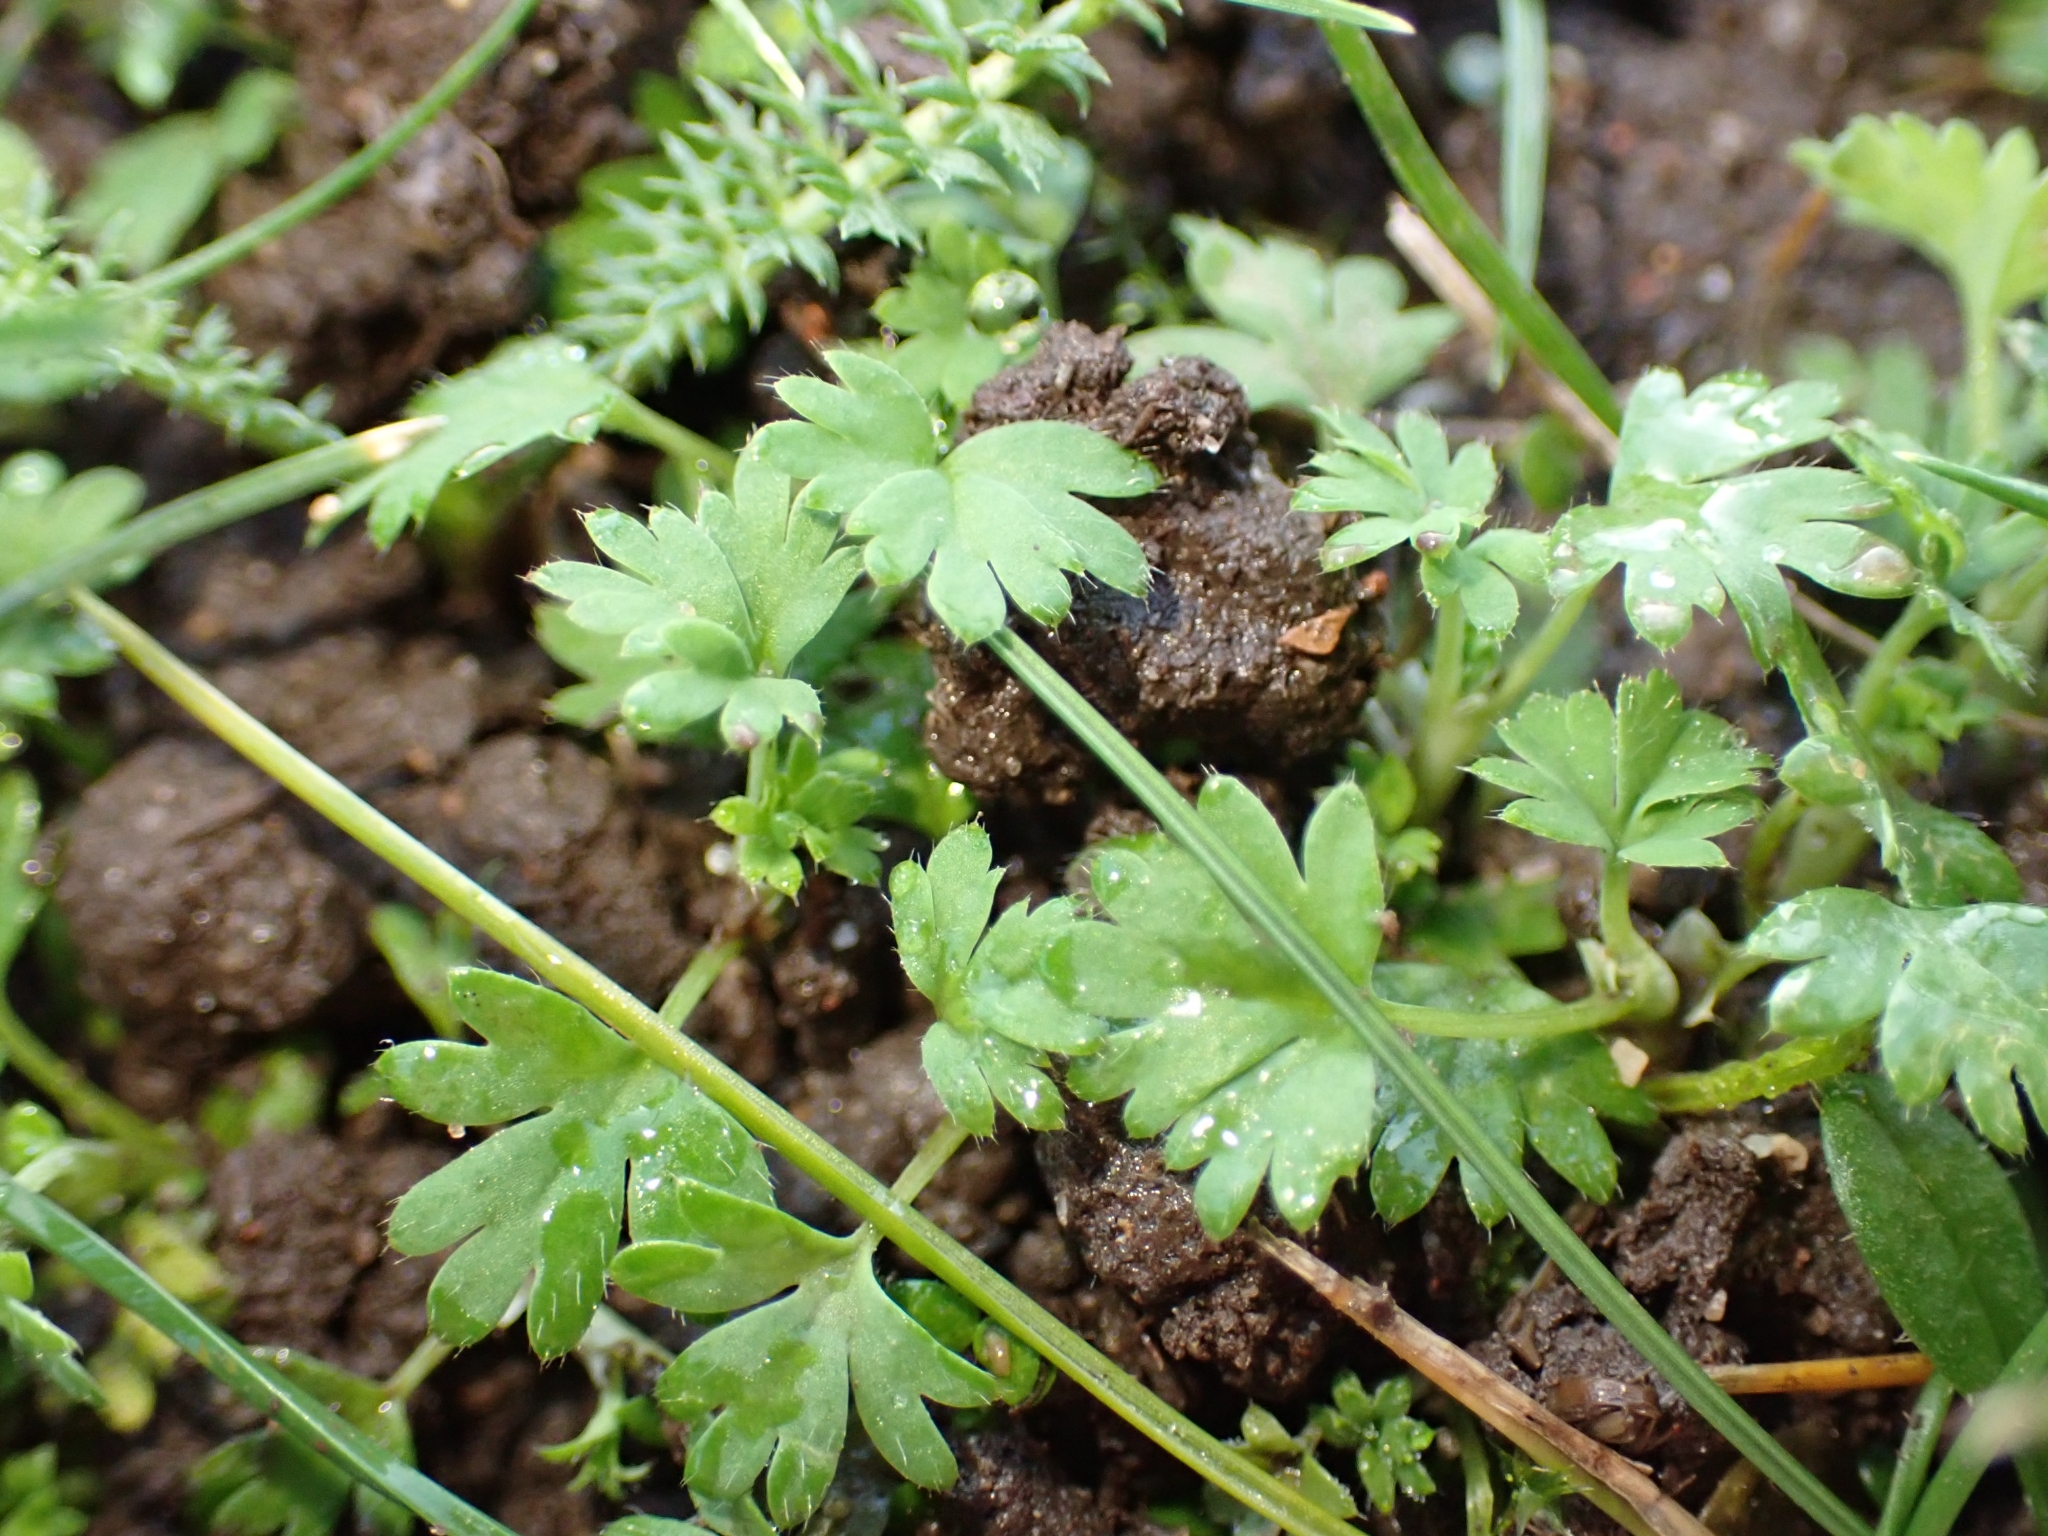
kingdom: Plantae
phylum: Tracheophyta
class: Magnoliopsida
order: Rosales
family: Rosaceae
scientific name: Rosaceae
